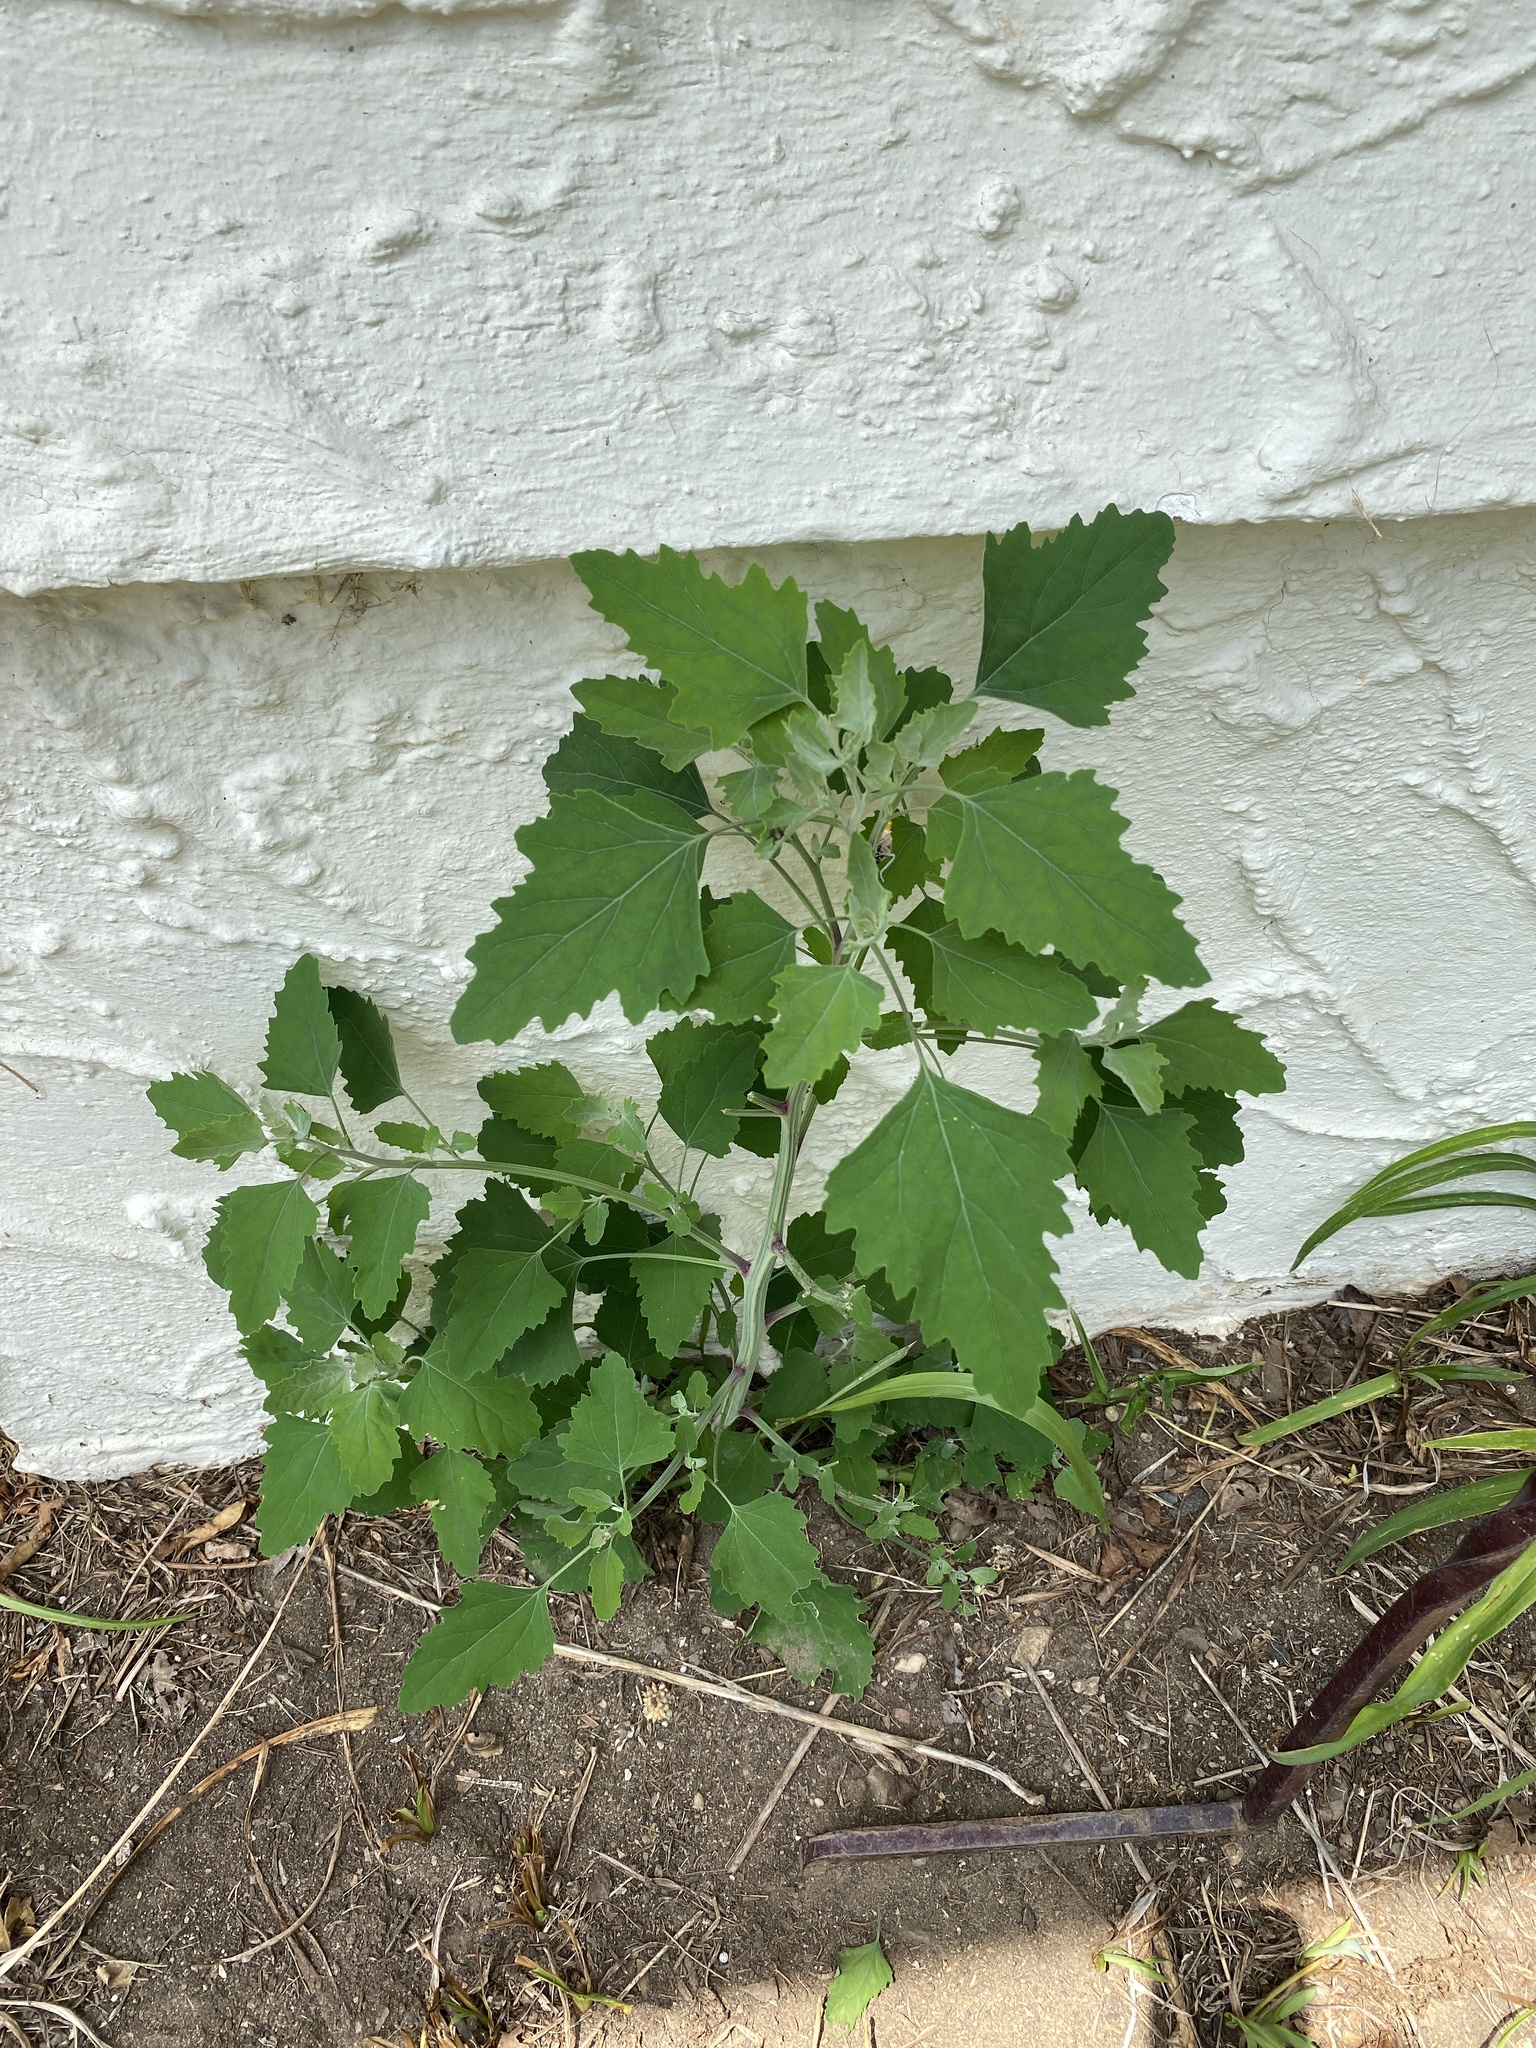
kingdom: Plantae
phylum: Tracheophyta
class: Magnoliopsida
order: Caryophyllales
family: Amaranthaceae
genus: Chenopodium
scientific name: Chenopodium album
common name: Fat-hen
